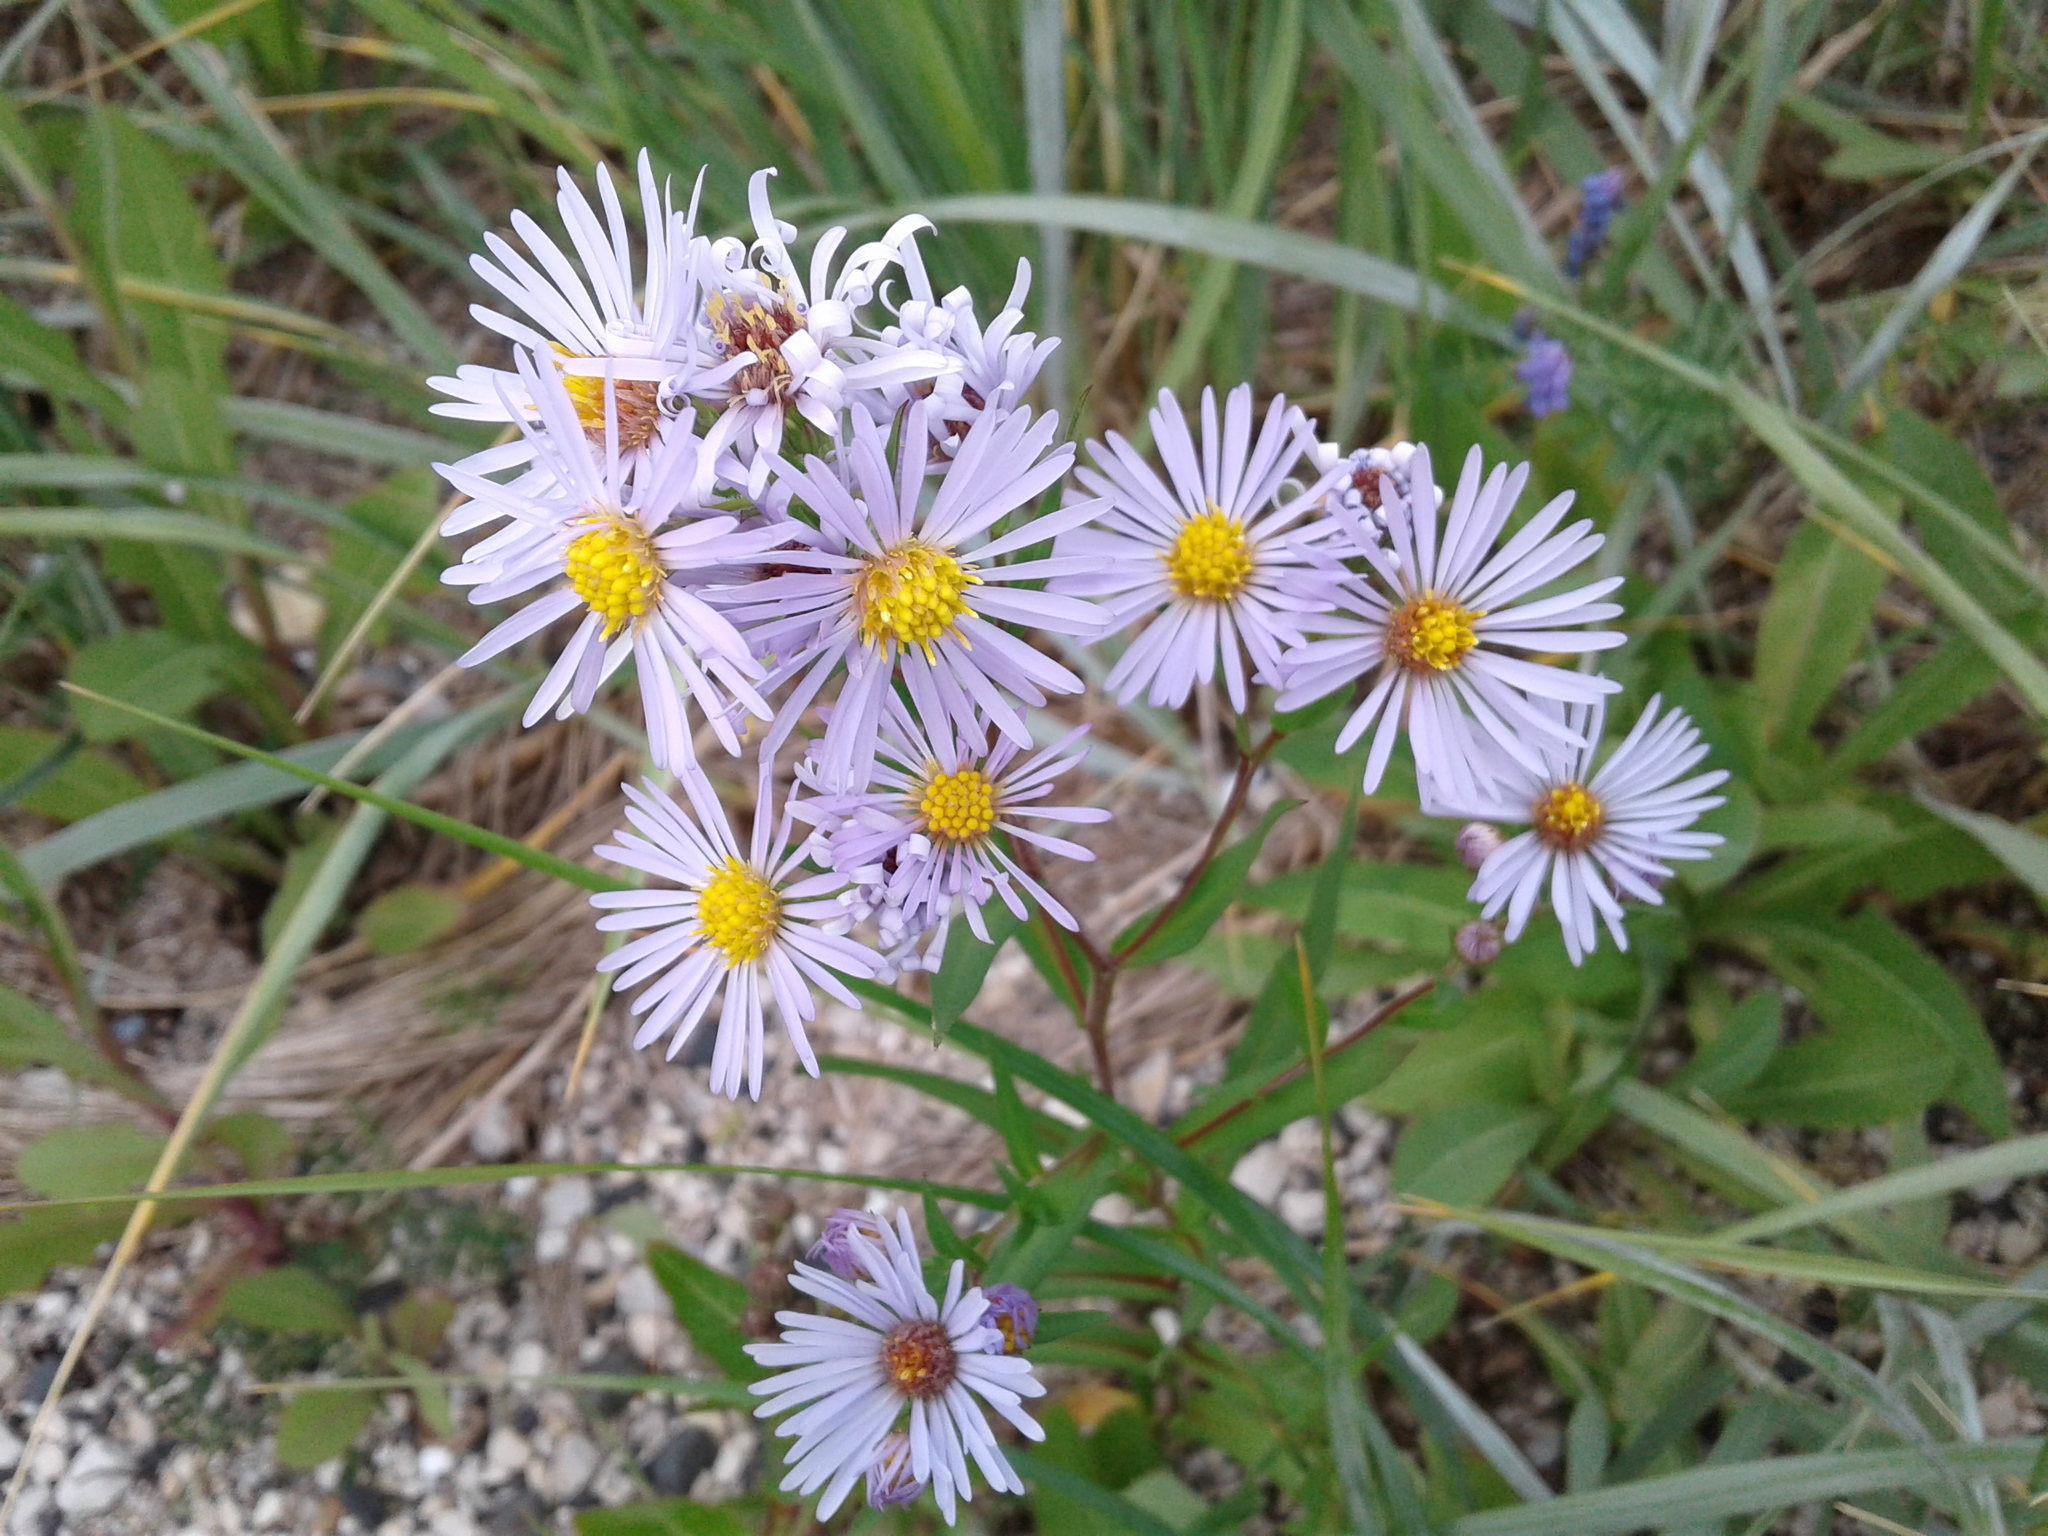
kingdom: Plantae
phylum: Tracheophyta
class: Magnoliopsida
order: Asterales
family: Asteraceae
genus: Symphyotrichum
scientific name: Symphyotrichum robynsianum
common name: Robyns' aster
